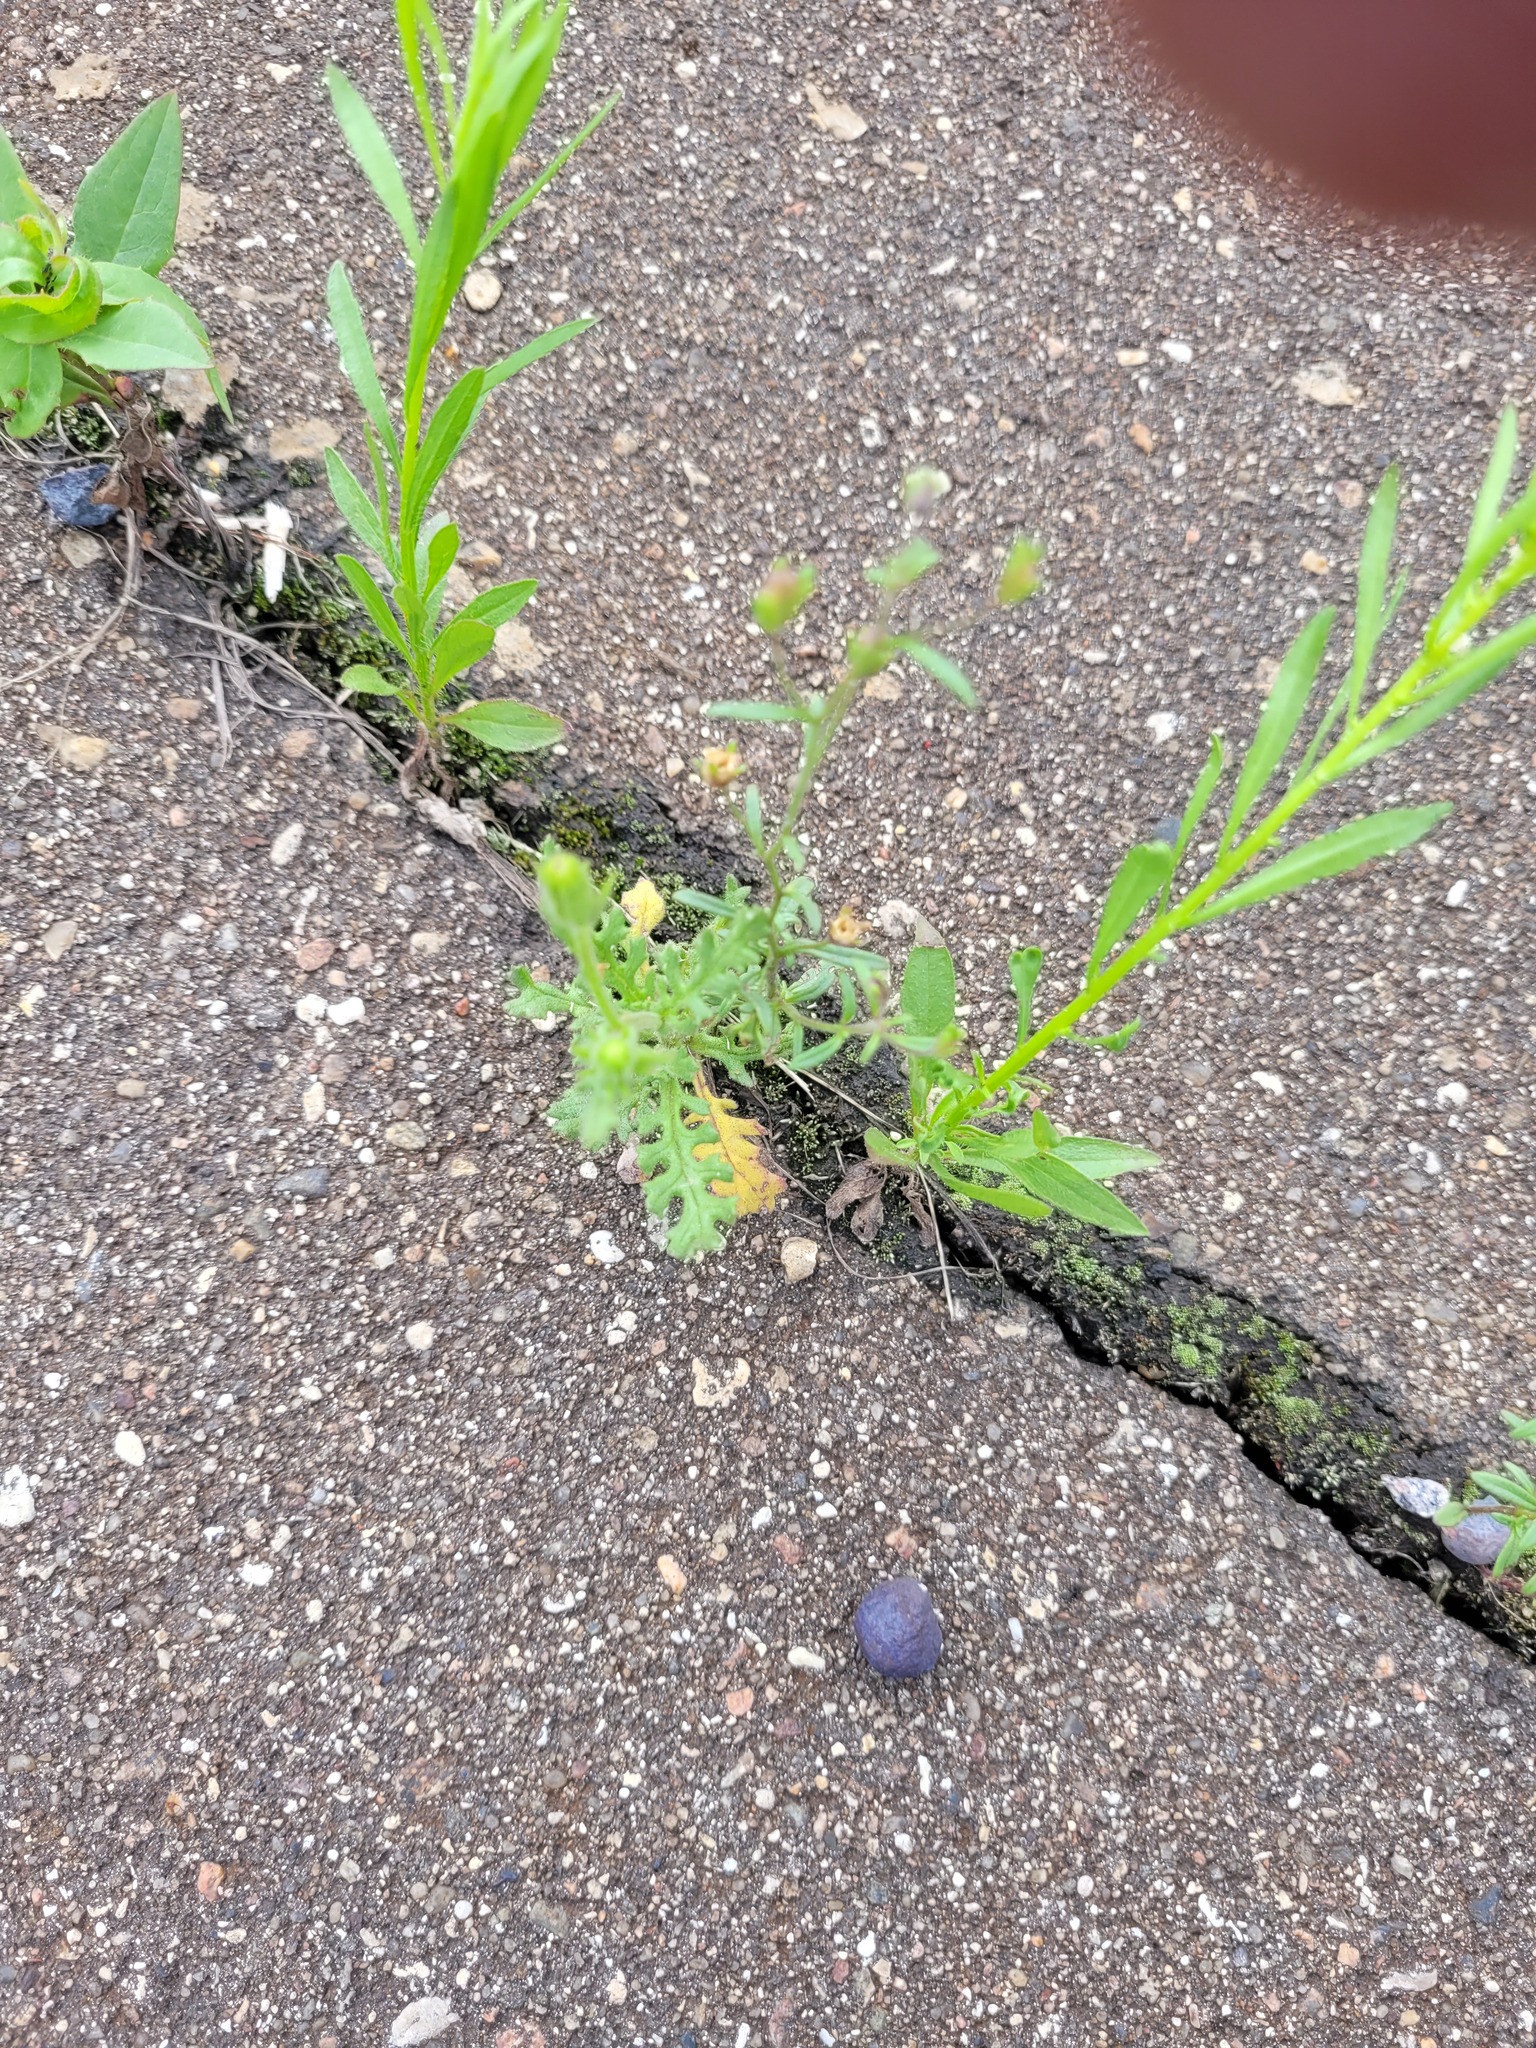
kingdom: Plantae
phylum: Tracheophyta
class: Magnoliopsida
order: Asterales
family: Asteraceae
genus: Senecio
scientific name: Senecio viscosus
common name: Sticky groundsel
